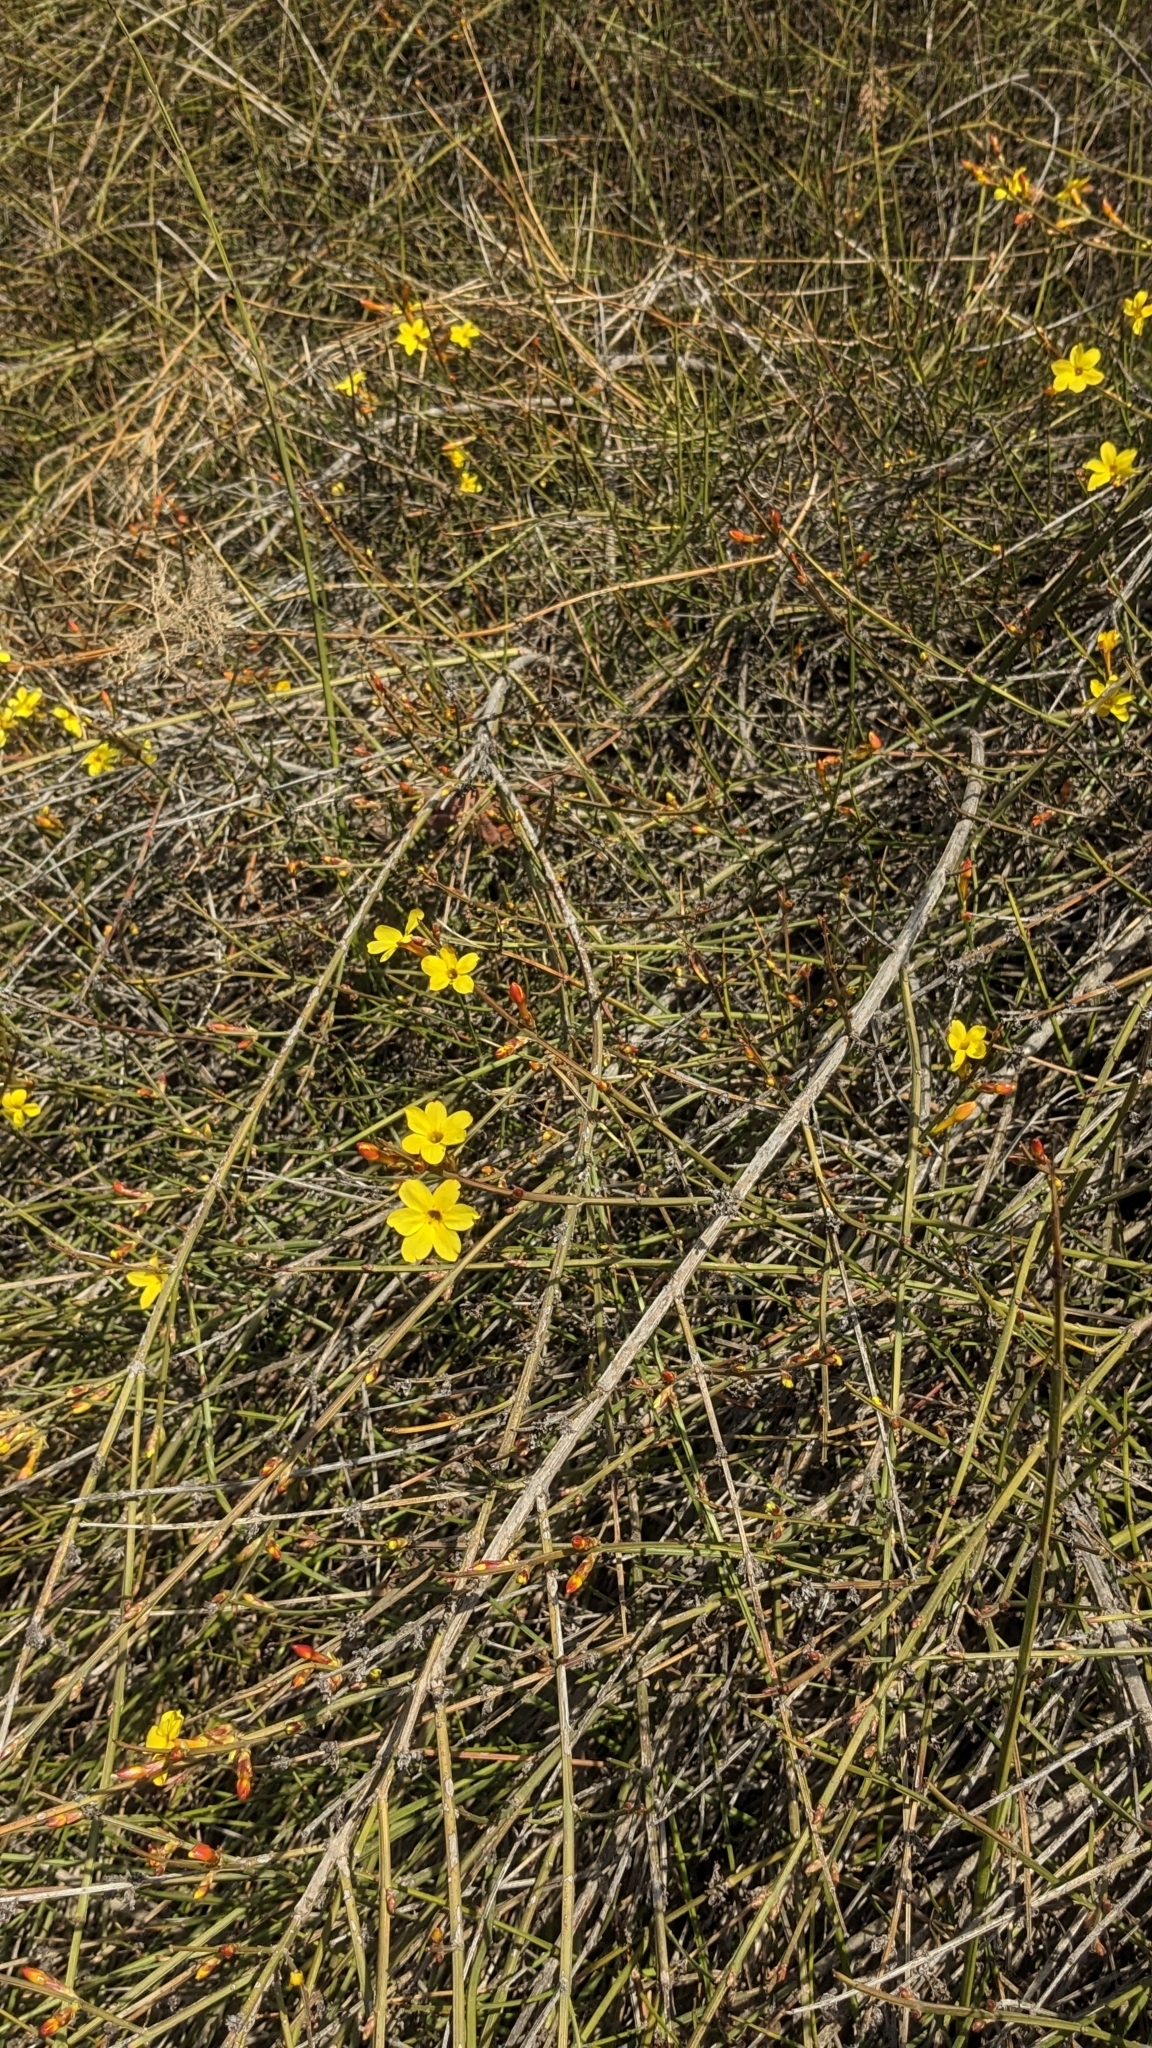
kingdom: Plantae
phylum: Tracheophyta
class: Magnoliopsida
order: Lamiales
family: Oleaceae
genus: Jasminum
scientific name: Jasminum nudiflorum
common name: Winter jasmine
